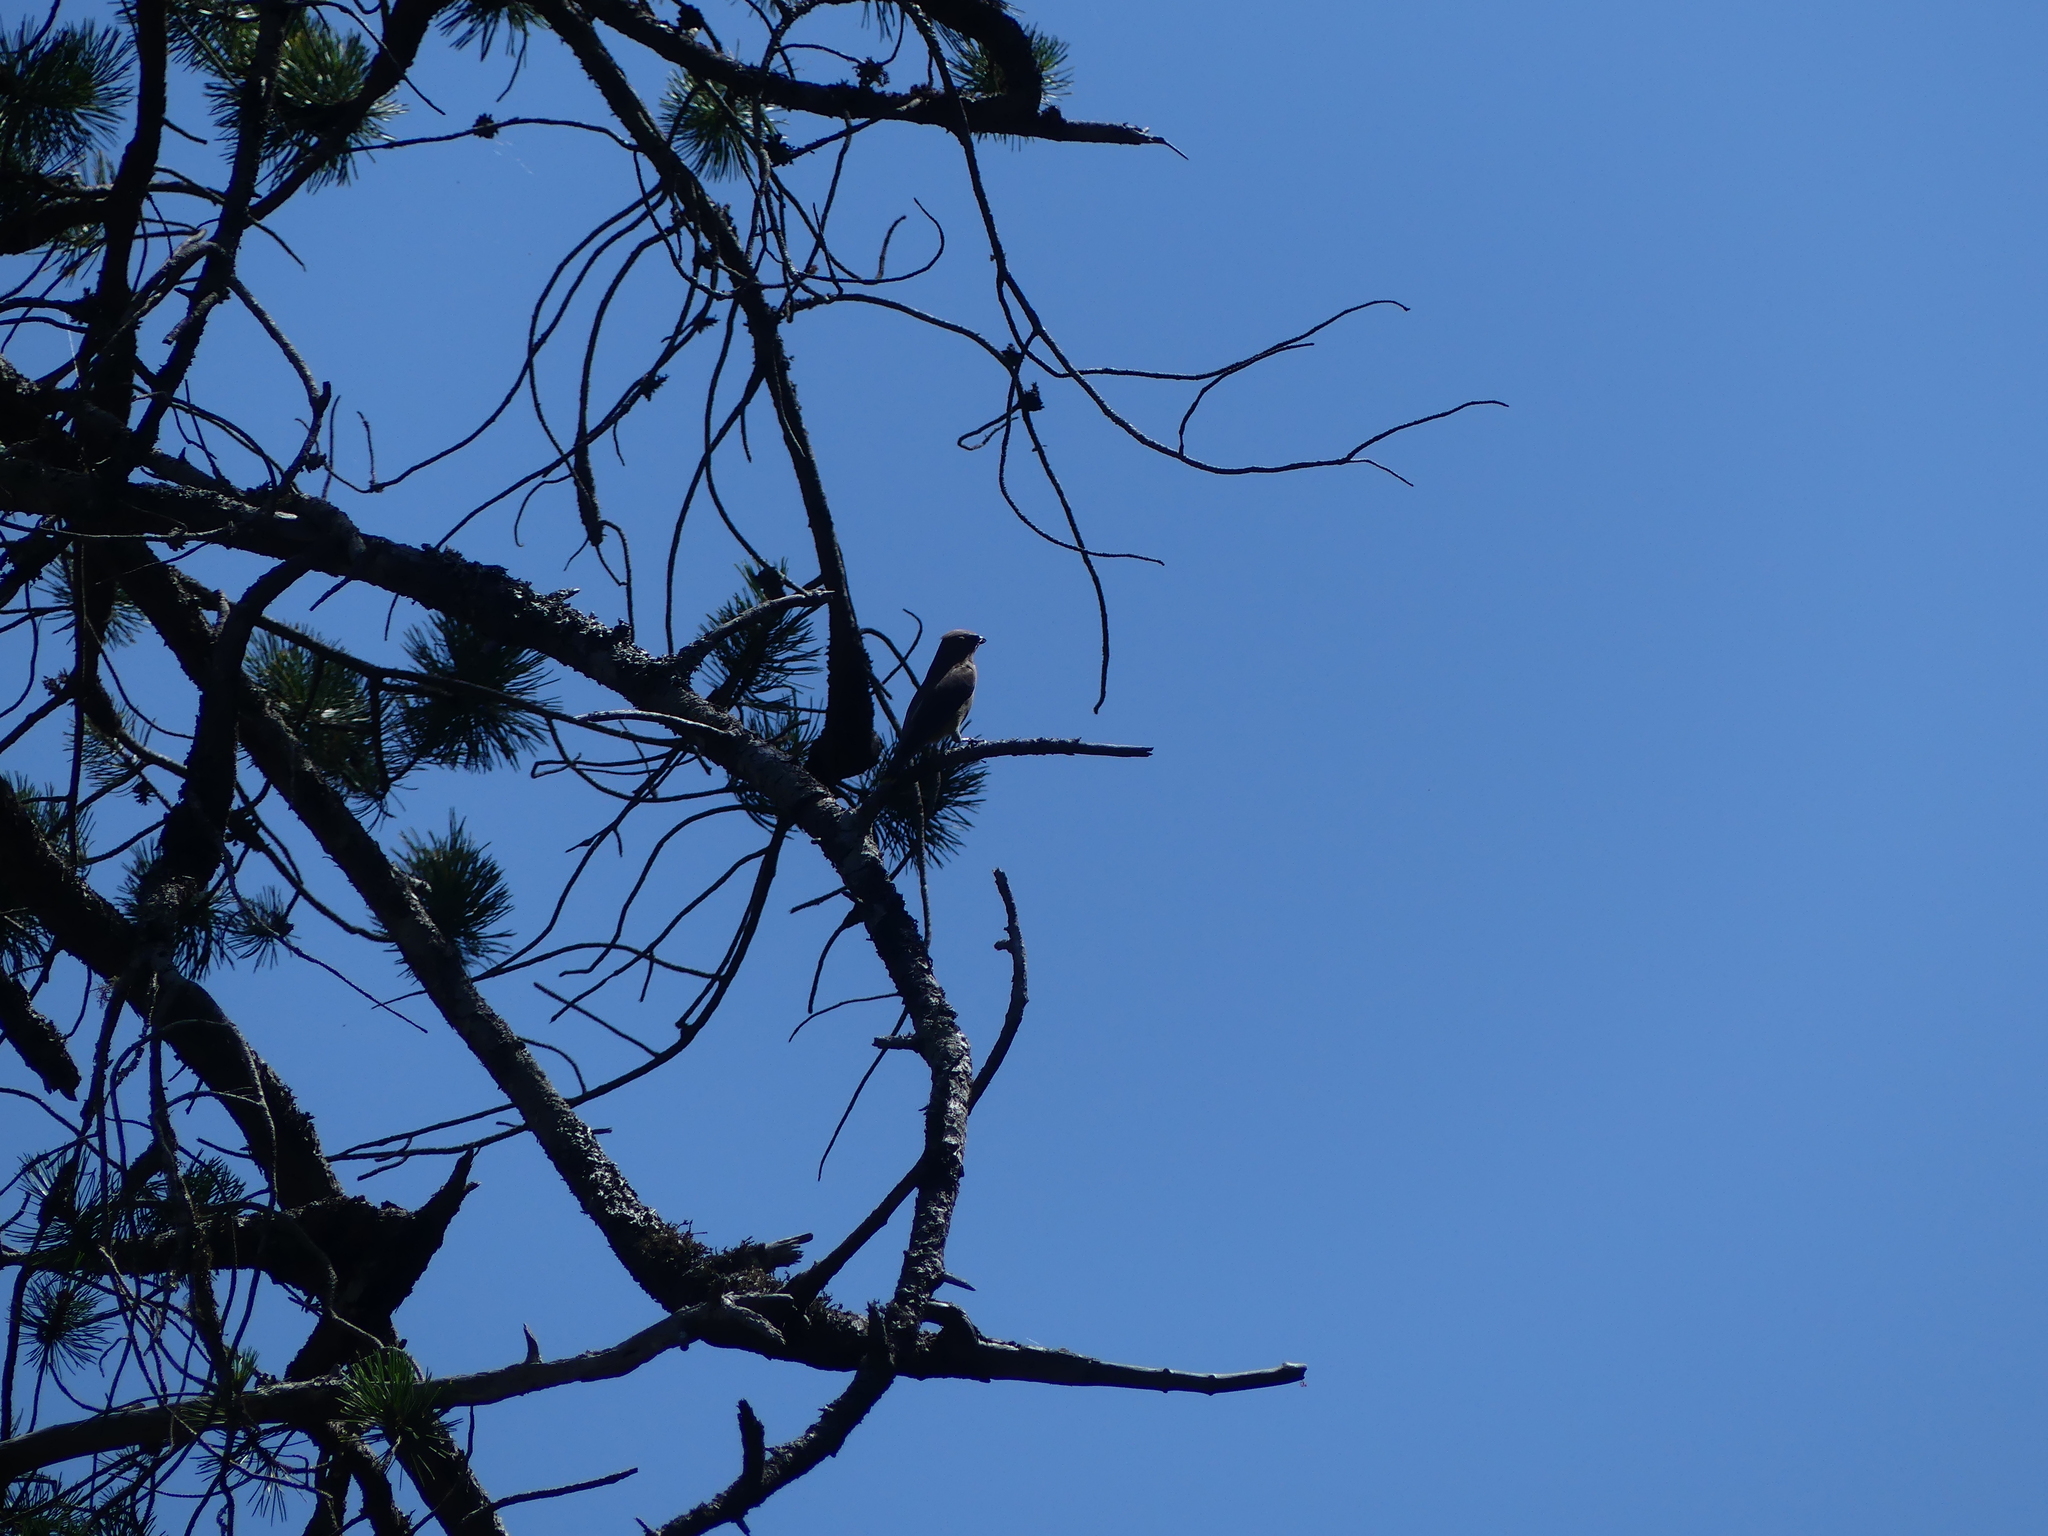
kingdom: Animalia
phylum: Chordata
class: Aves
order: Passeriformes
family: Bombycillidae
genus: Bombycilla
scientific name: Bombycilla cedrorum
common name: Cedar waxwing
